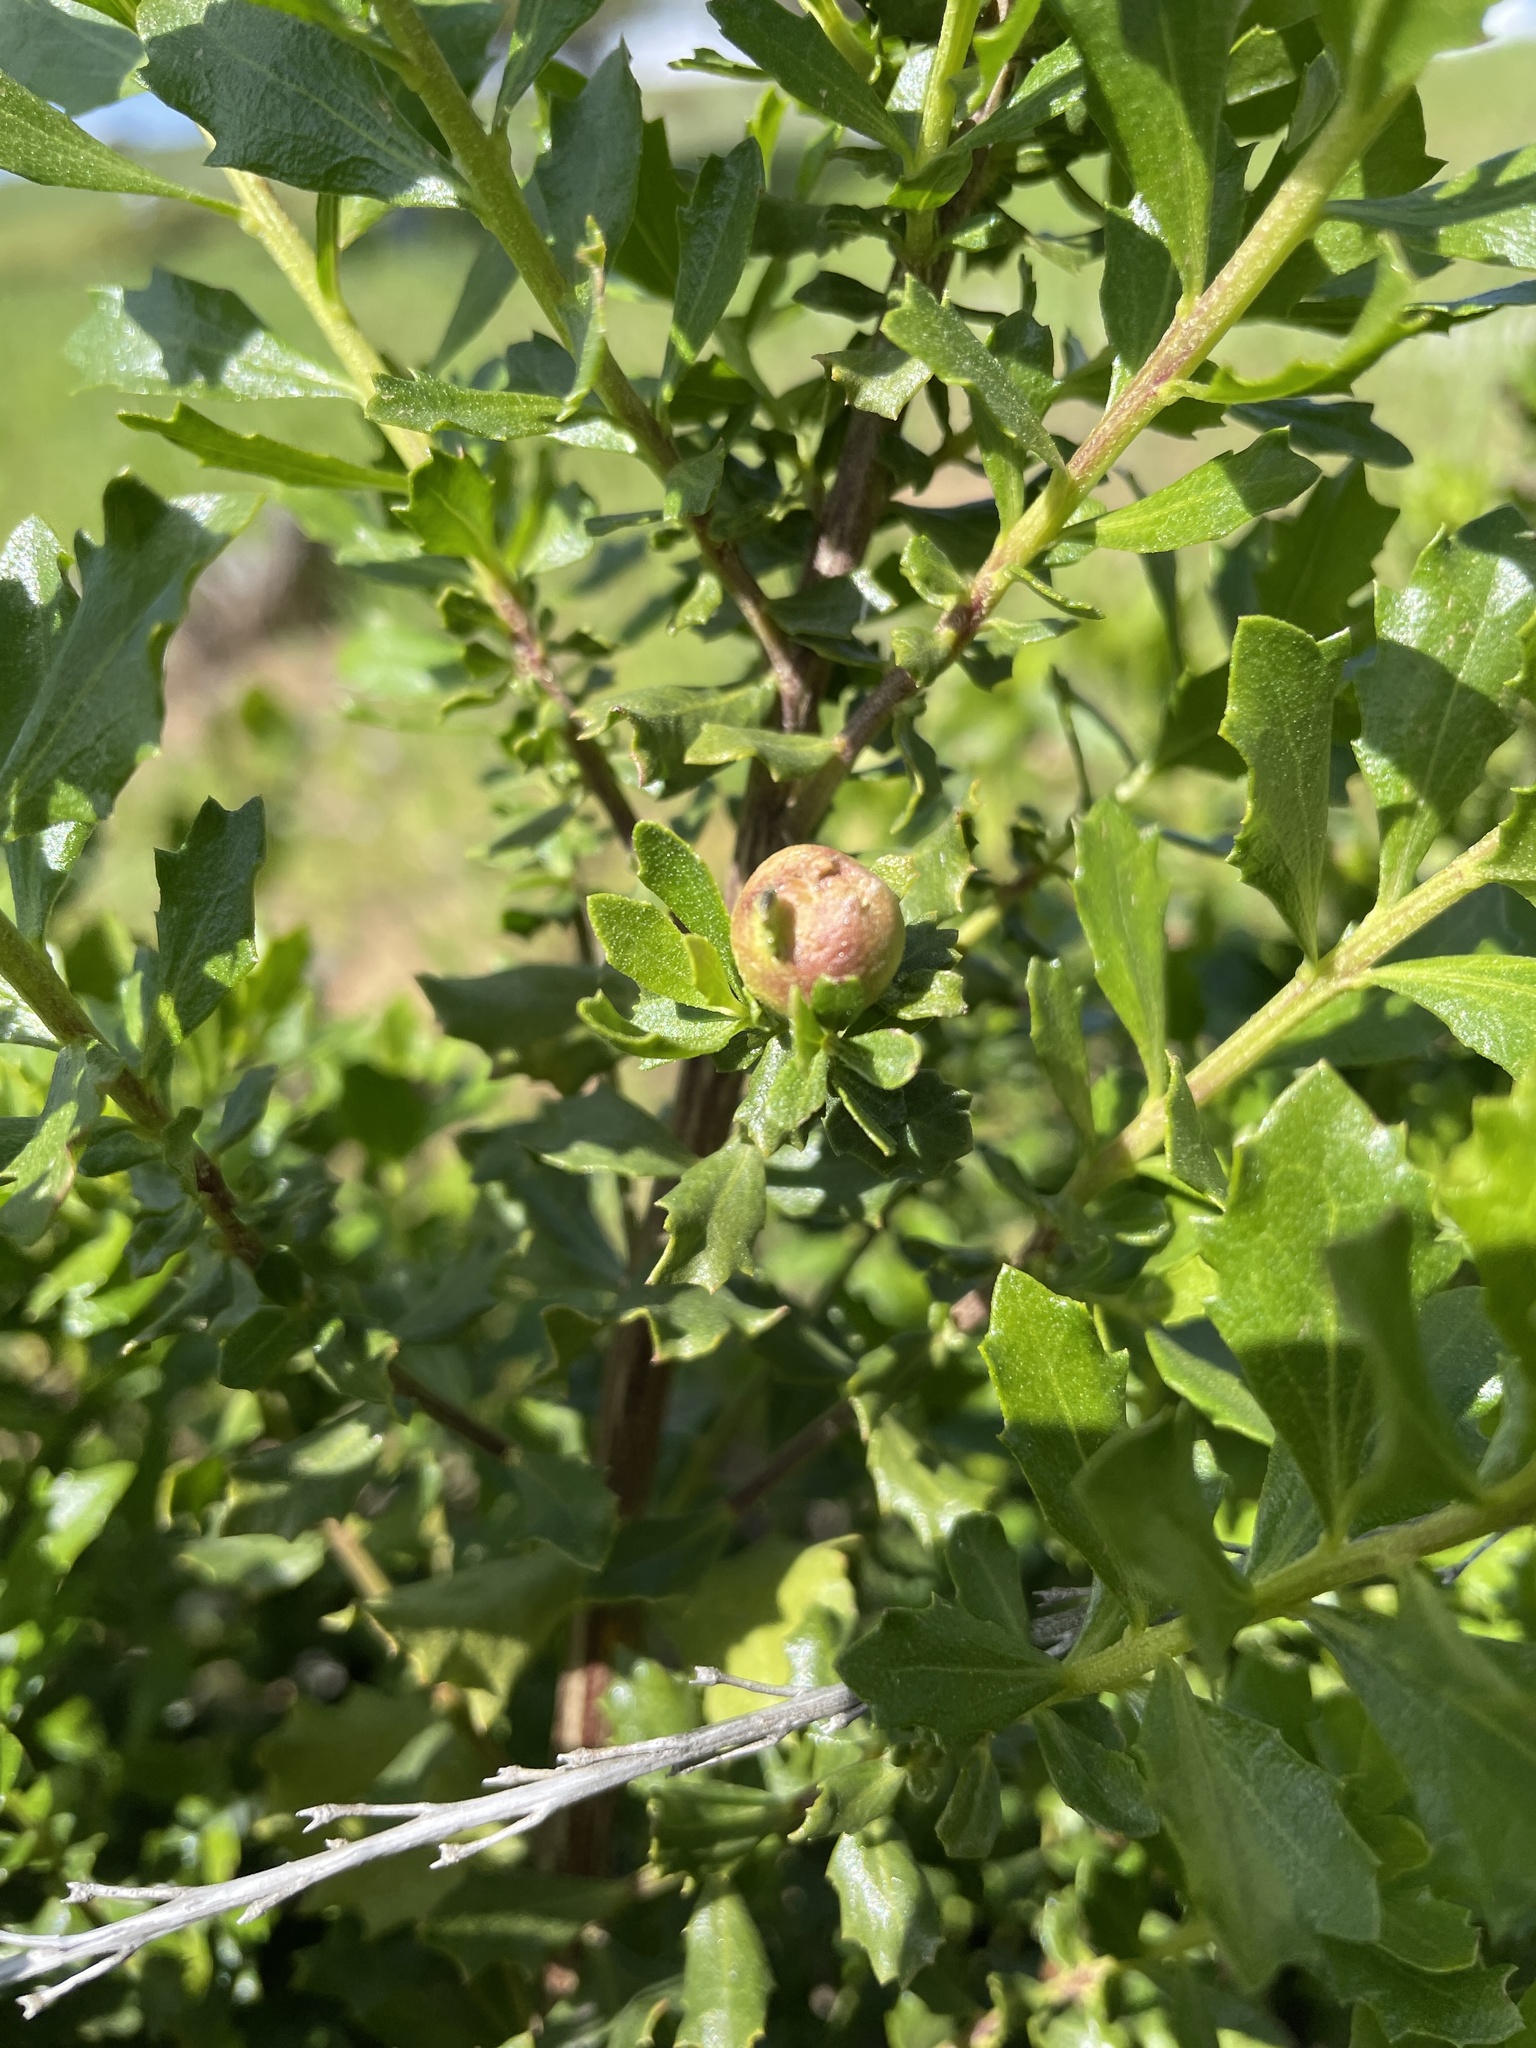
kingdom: Animalia
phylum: Arthropoda
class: Insecta
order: Diptera
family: Cecidomyiidae
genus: Rhopalomyia
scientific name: Rhopalomyia californica
